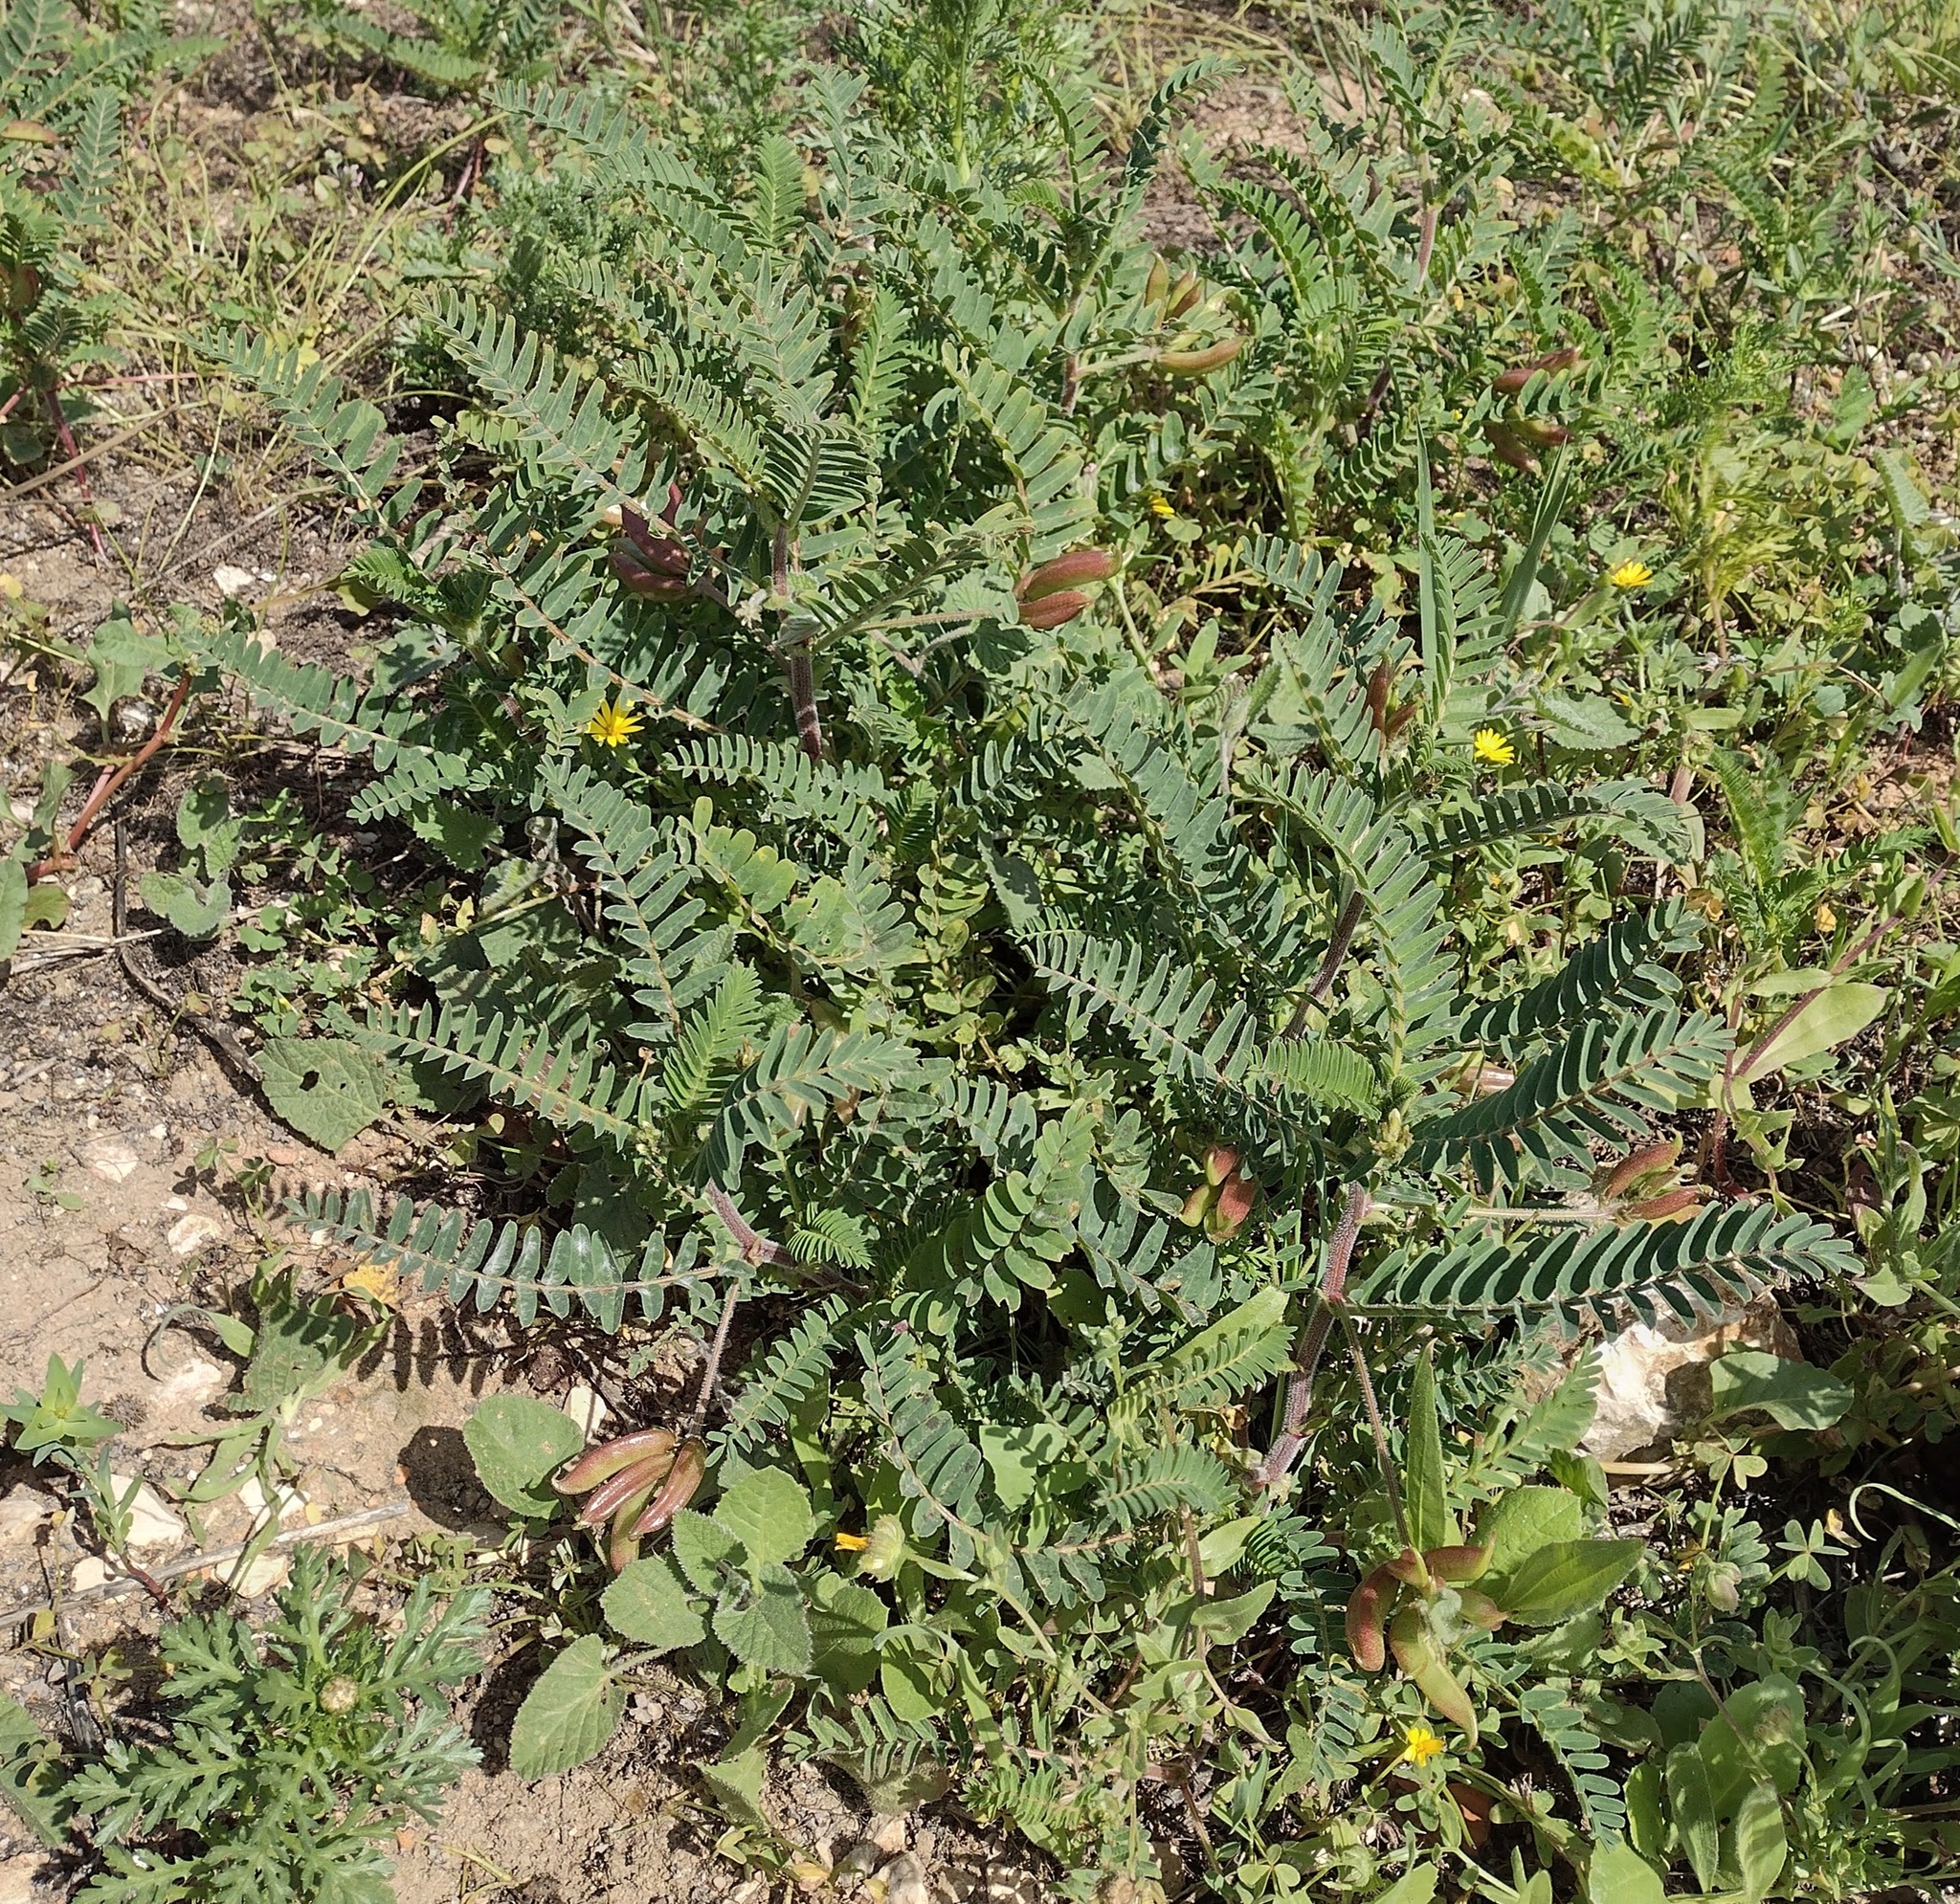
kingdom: Plantae
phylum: Tracheophyta
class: Magnoliopsida
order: Fabales
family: Fabaceae
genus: Astragalus
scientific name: Astragalus boeticus
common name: Milk-vetch
